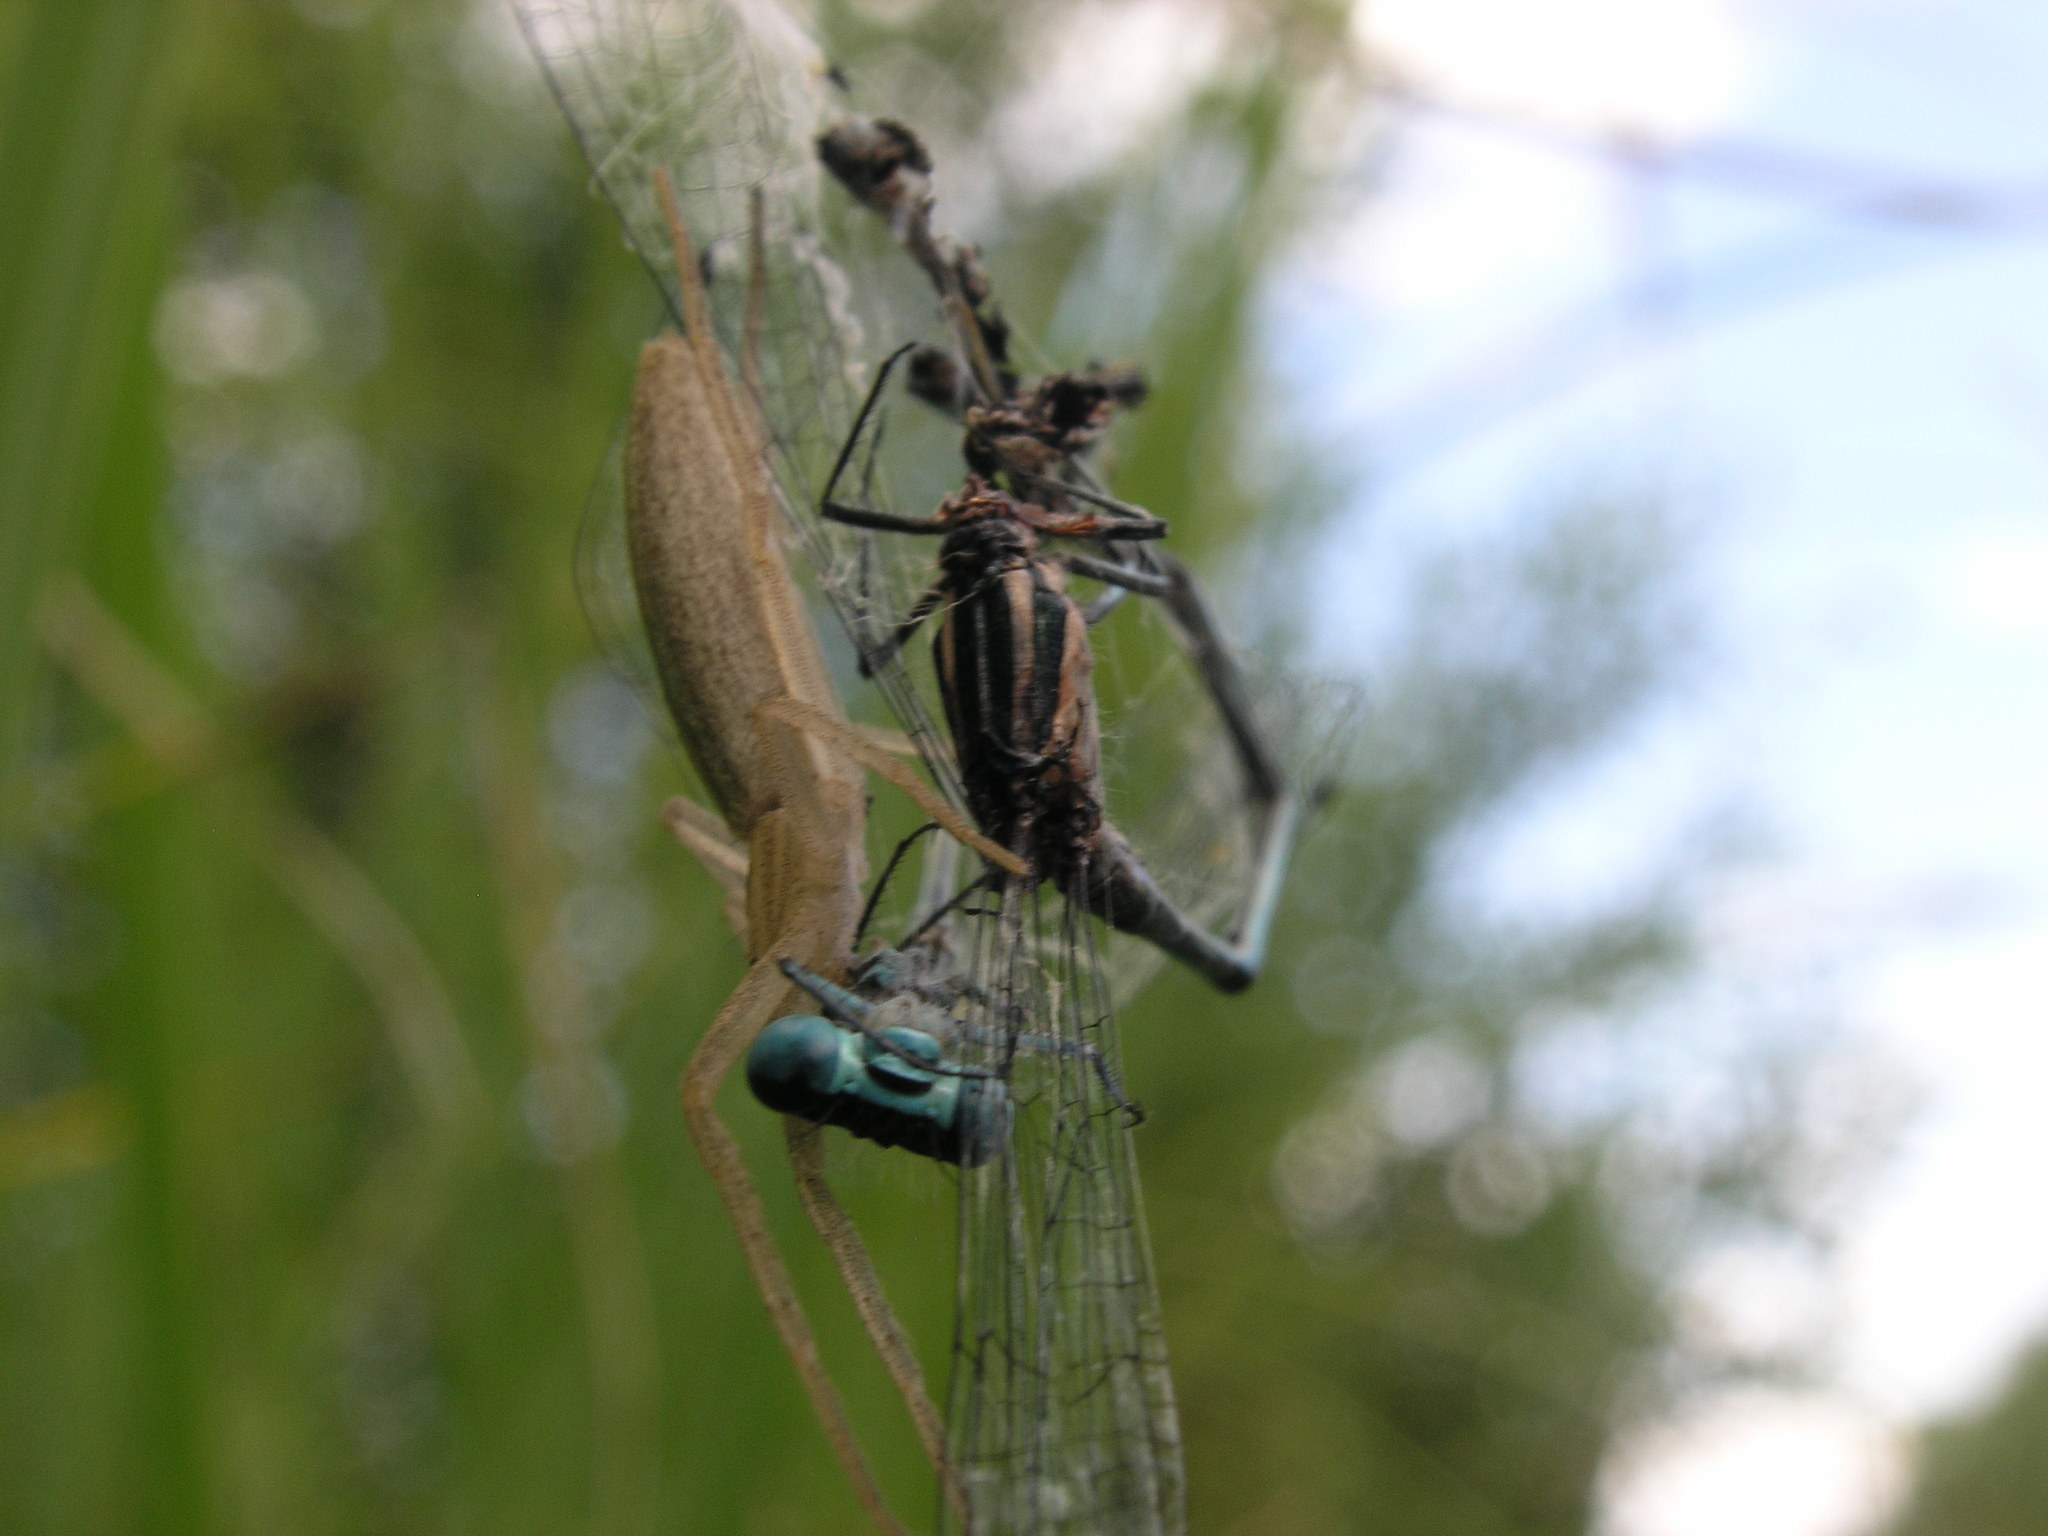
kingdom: Animalia
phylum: Arthropoda
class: Insecta
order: Odonata
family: Coenagrionidae
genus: Coenagrion
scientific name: Coenagrion pulchellum
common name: Variable bluet
